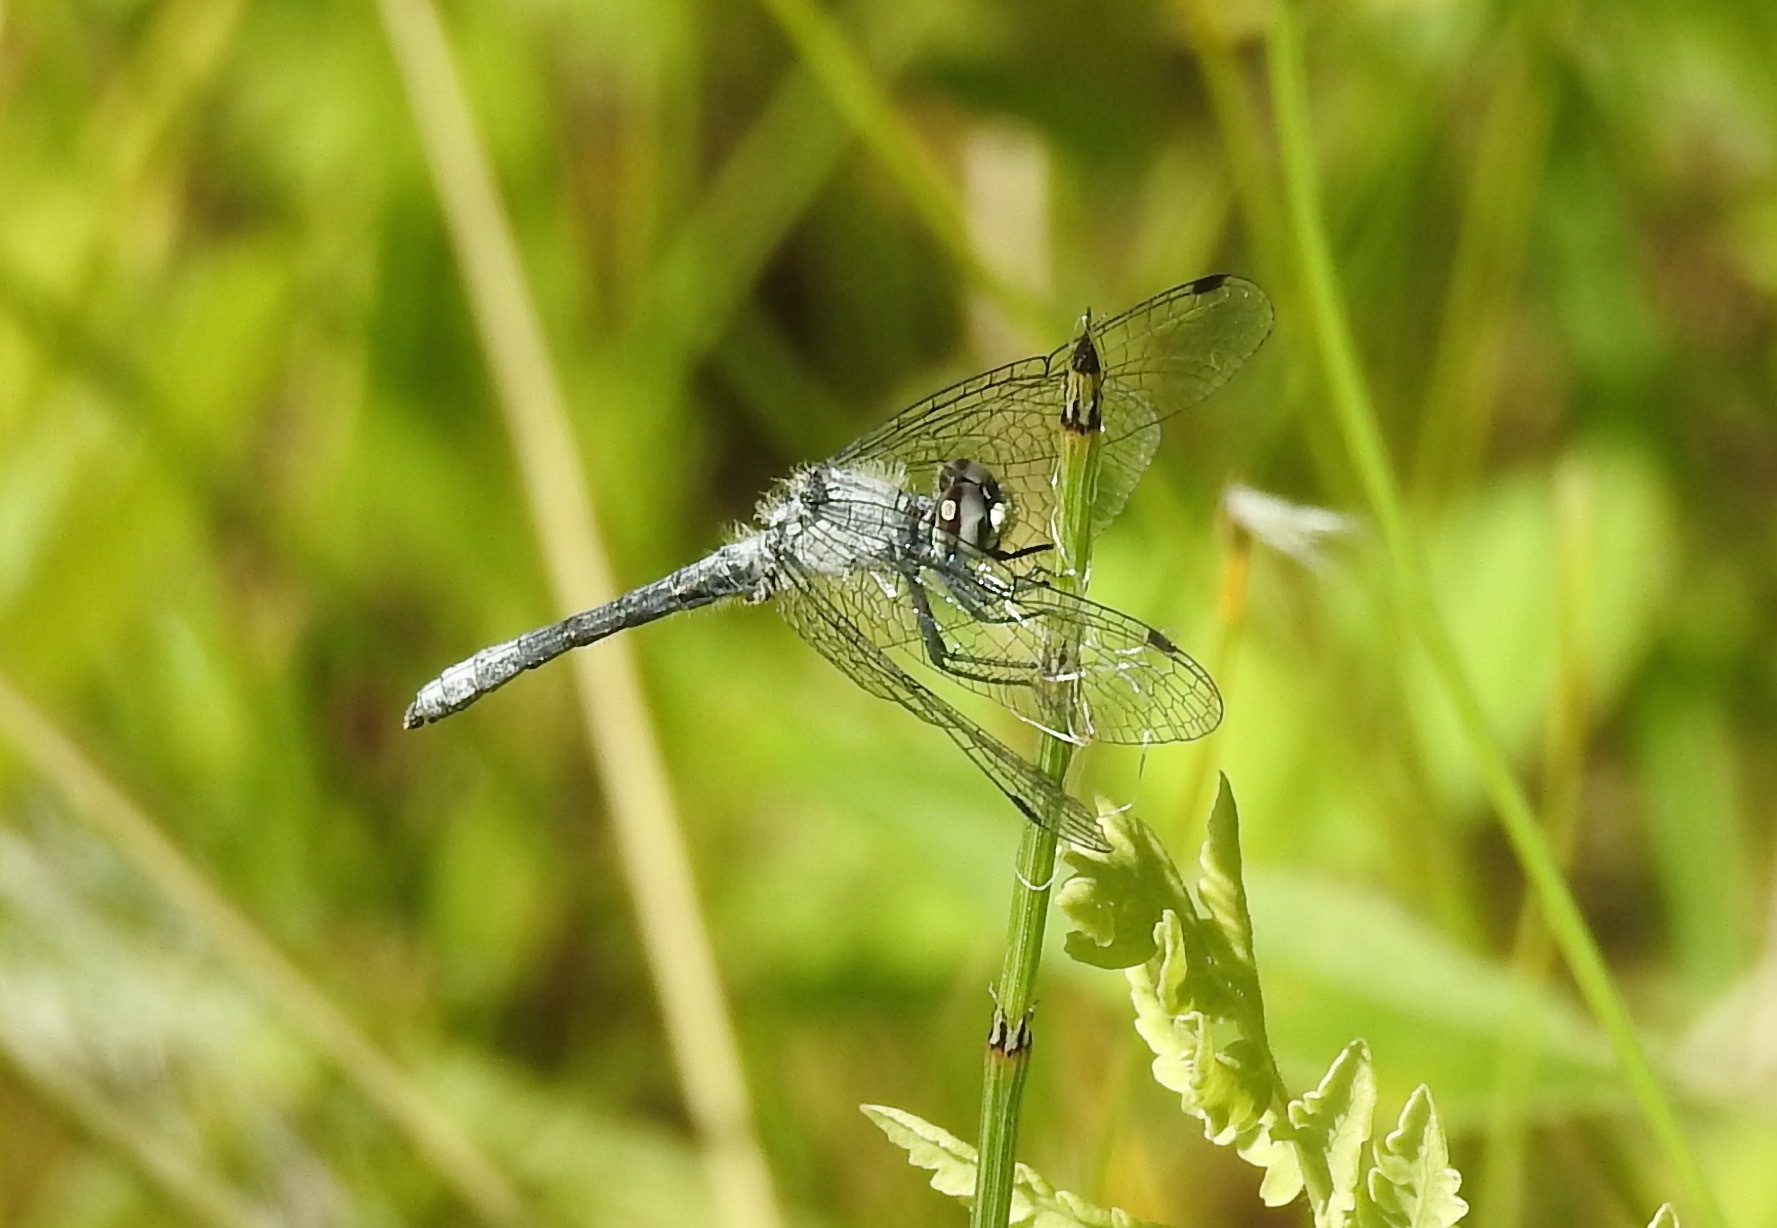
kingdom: Animalia
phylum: Arthropoda
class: Insecta
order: Odonata
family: Libellulidae
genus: Nannothemis
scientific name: Nannothemis bella
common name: Elfin skimmer
